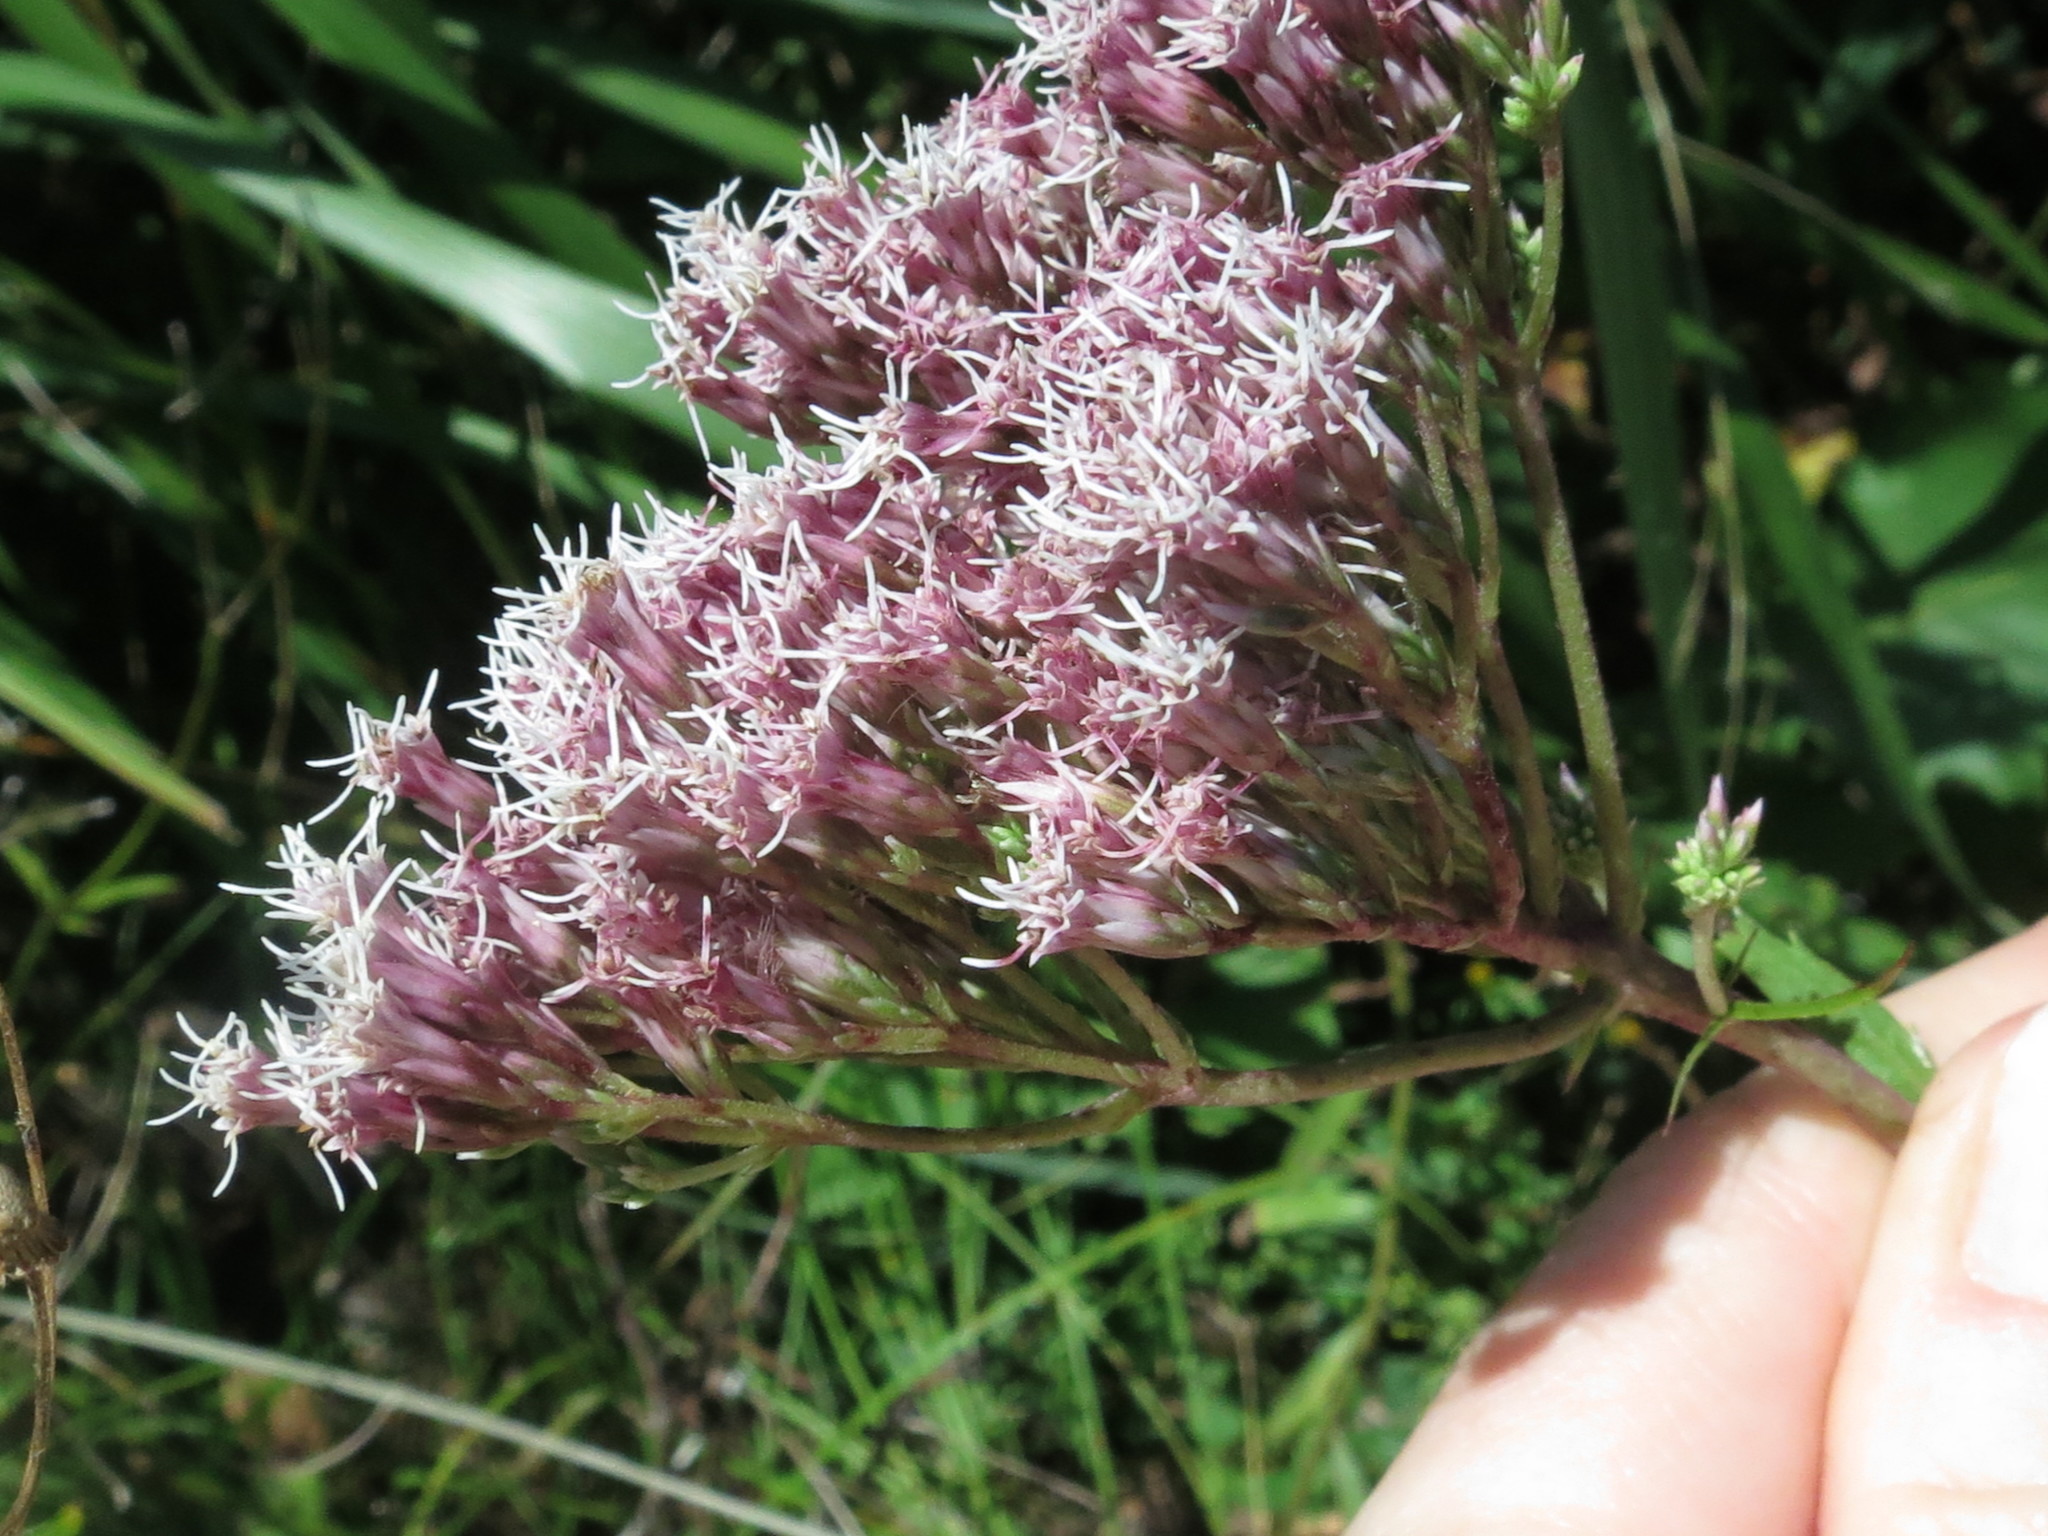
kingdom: Plantae
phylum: Tracheophyta
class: Magnoliopsida
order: Asterales
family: Asteraceae
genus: Eupatorium
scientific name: Eupatorium lindleyanum
